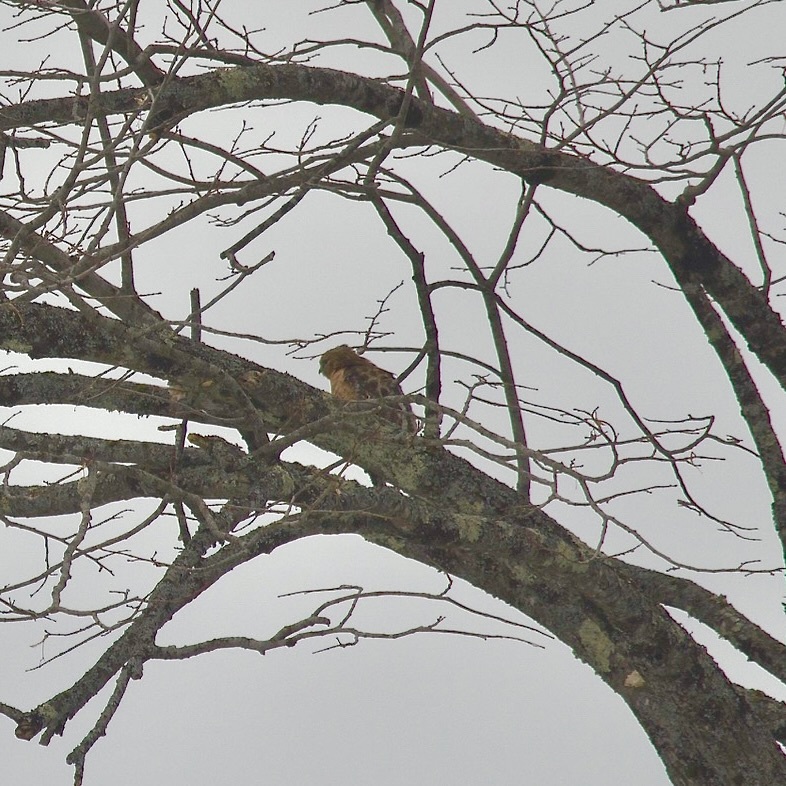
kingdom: Animalia
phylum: Chordata
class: Aves
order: Accipitriformes
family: Accipitridae
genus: Buteo
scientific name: Buteo lineatus
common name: Red-shouldered hawk
